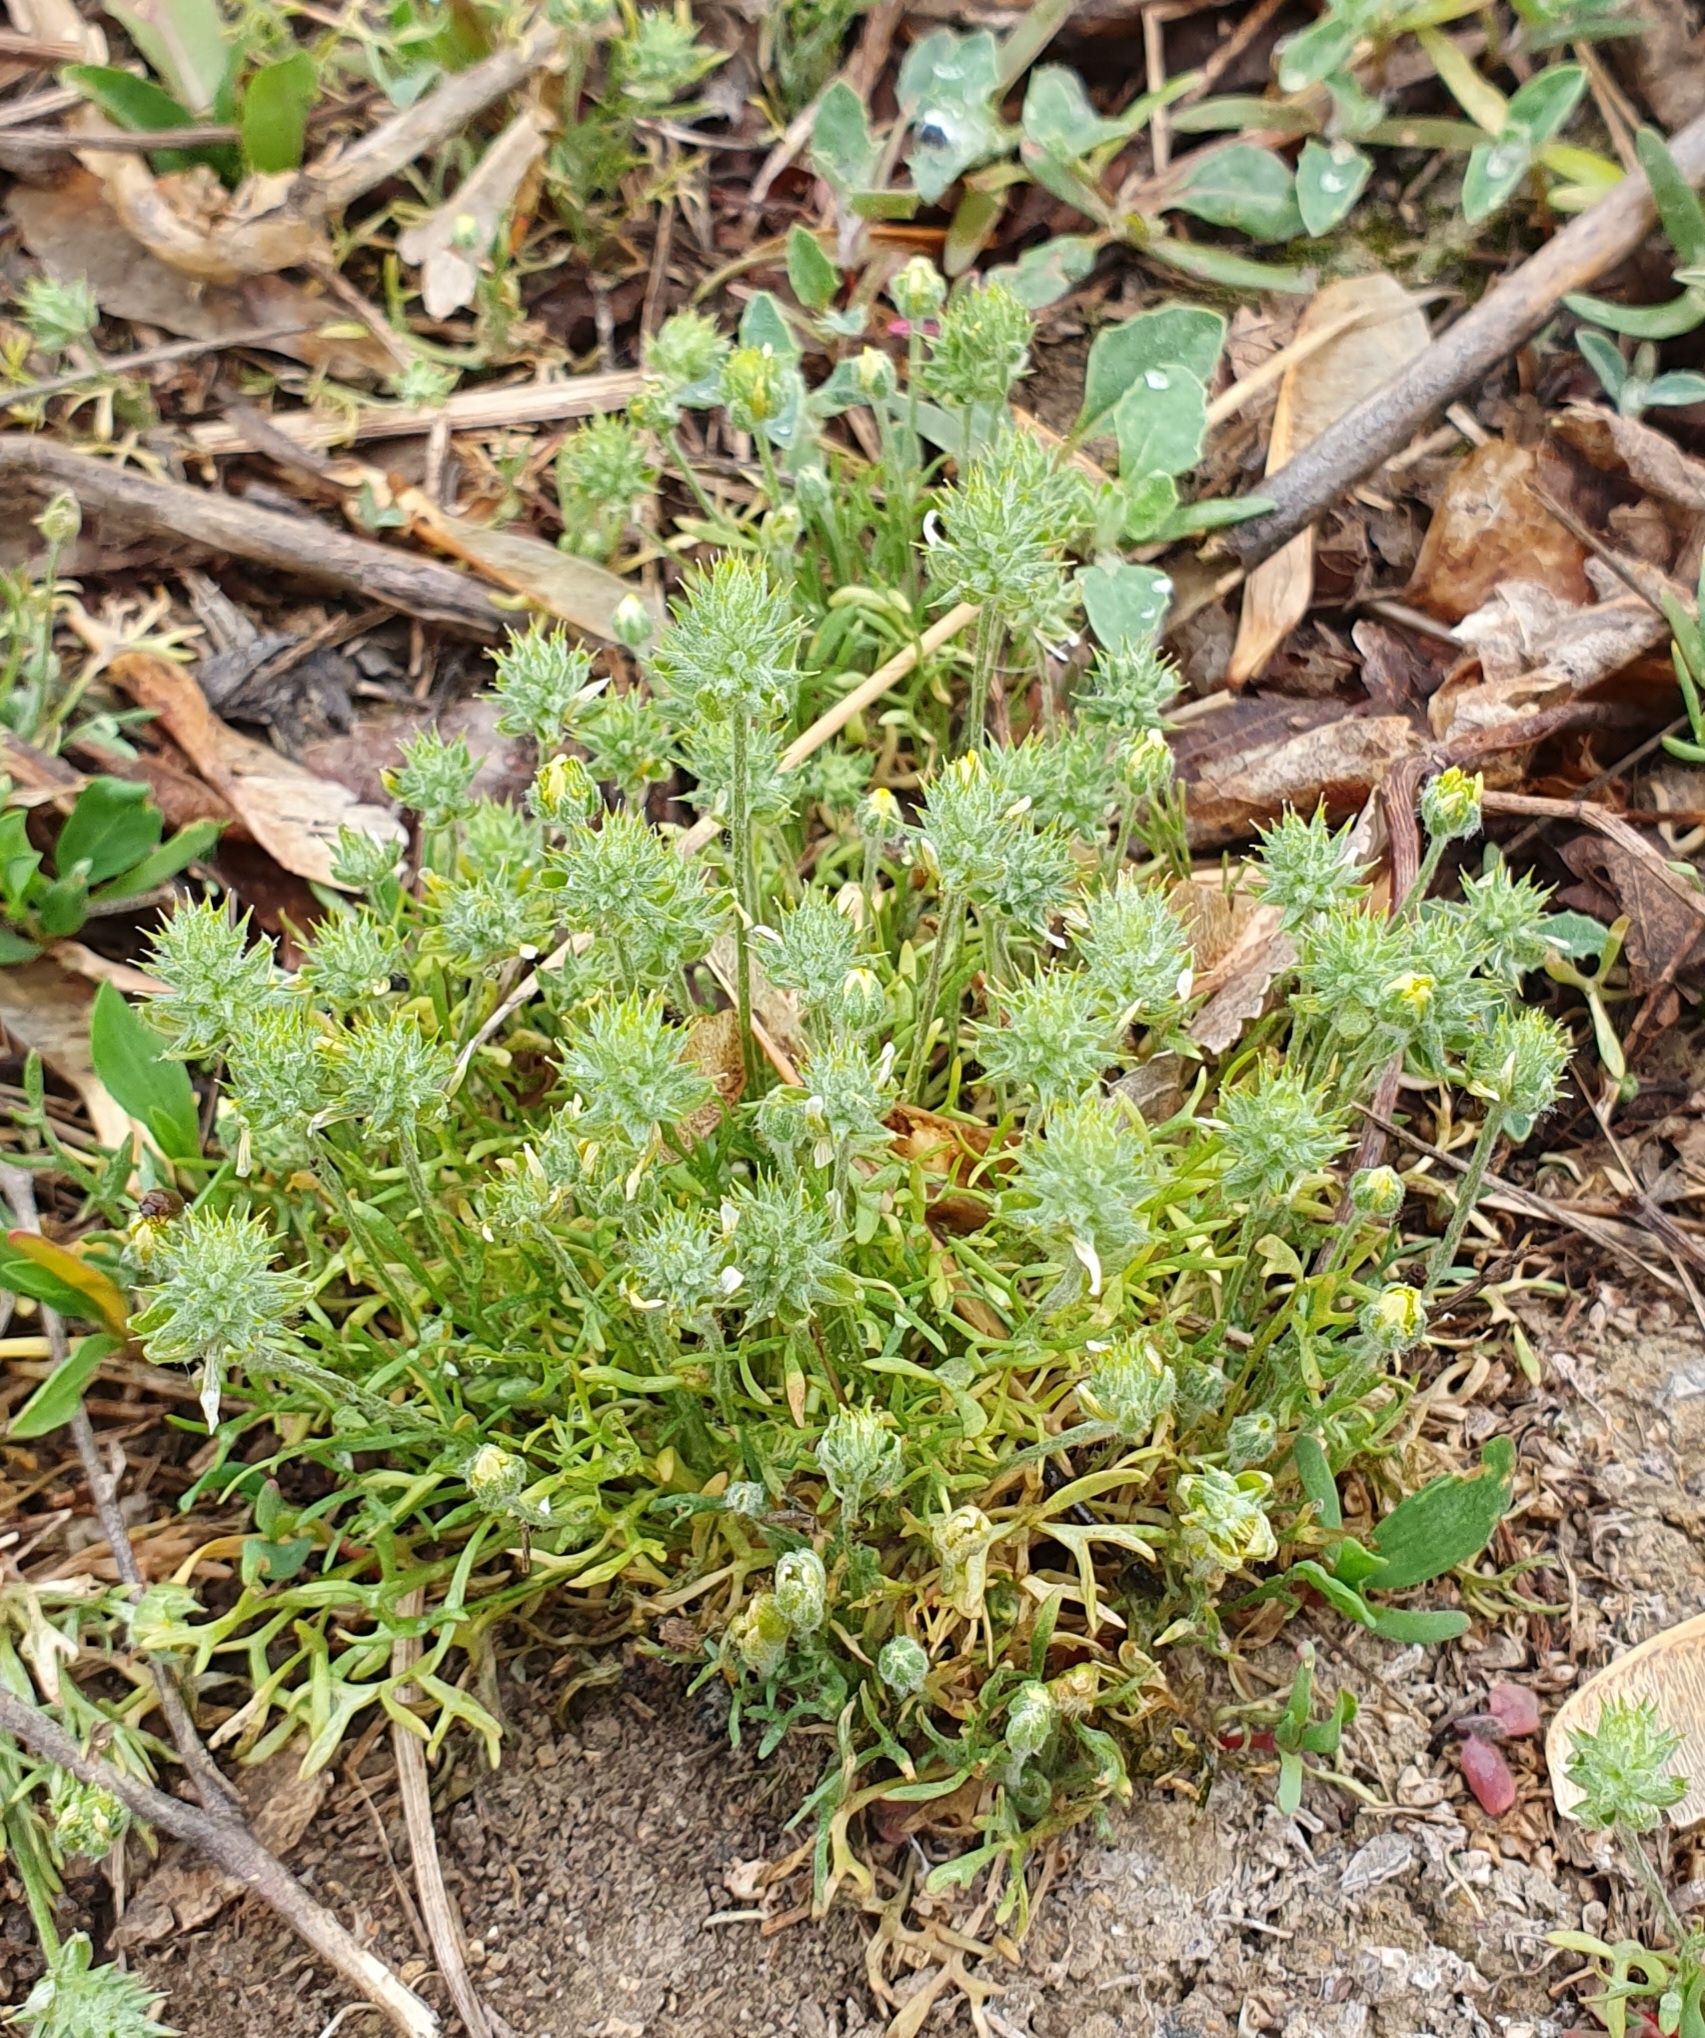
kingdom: Plantae
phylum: Tracheophyta
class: Magnoliopsida
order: Ranunculales
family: Ranunculaceae
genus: Ceratocephala
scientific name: Ceratocephala orthoceras
